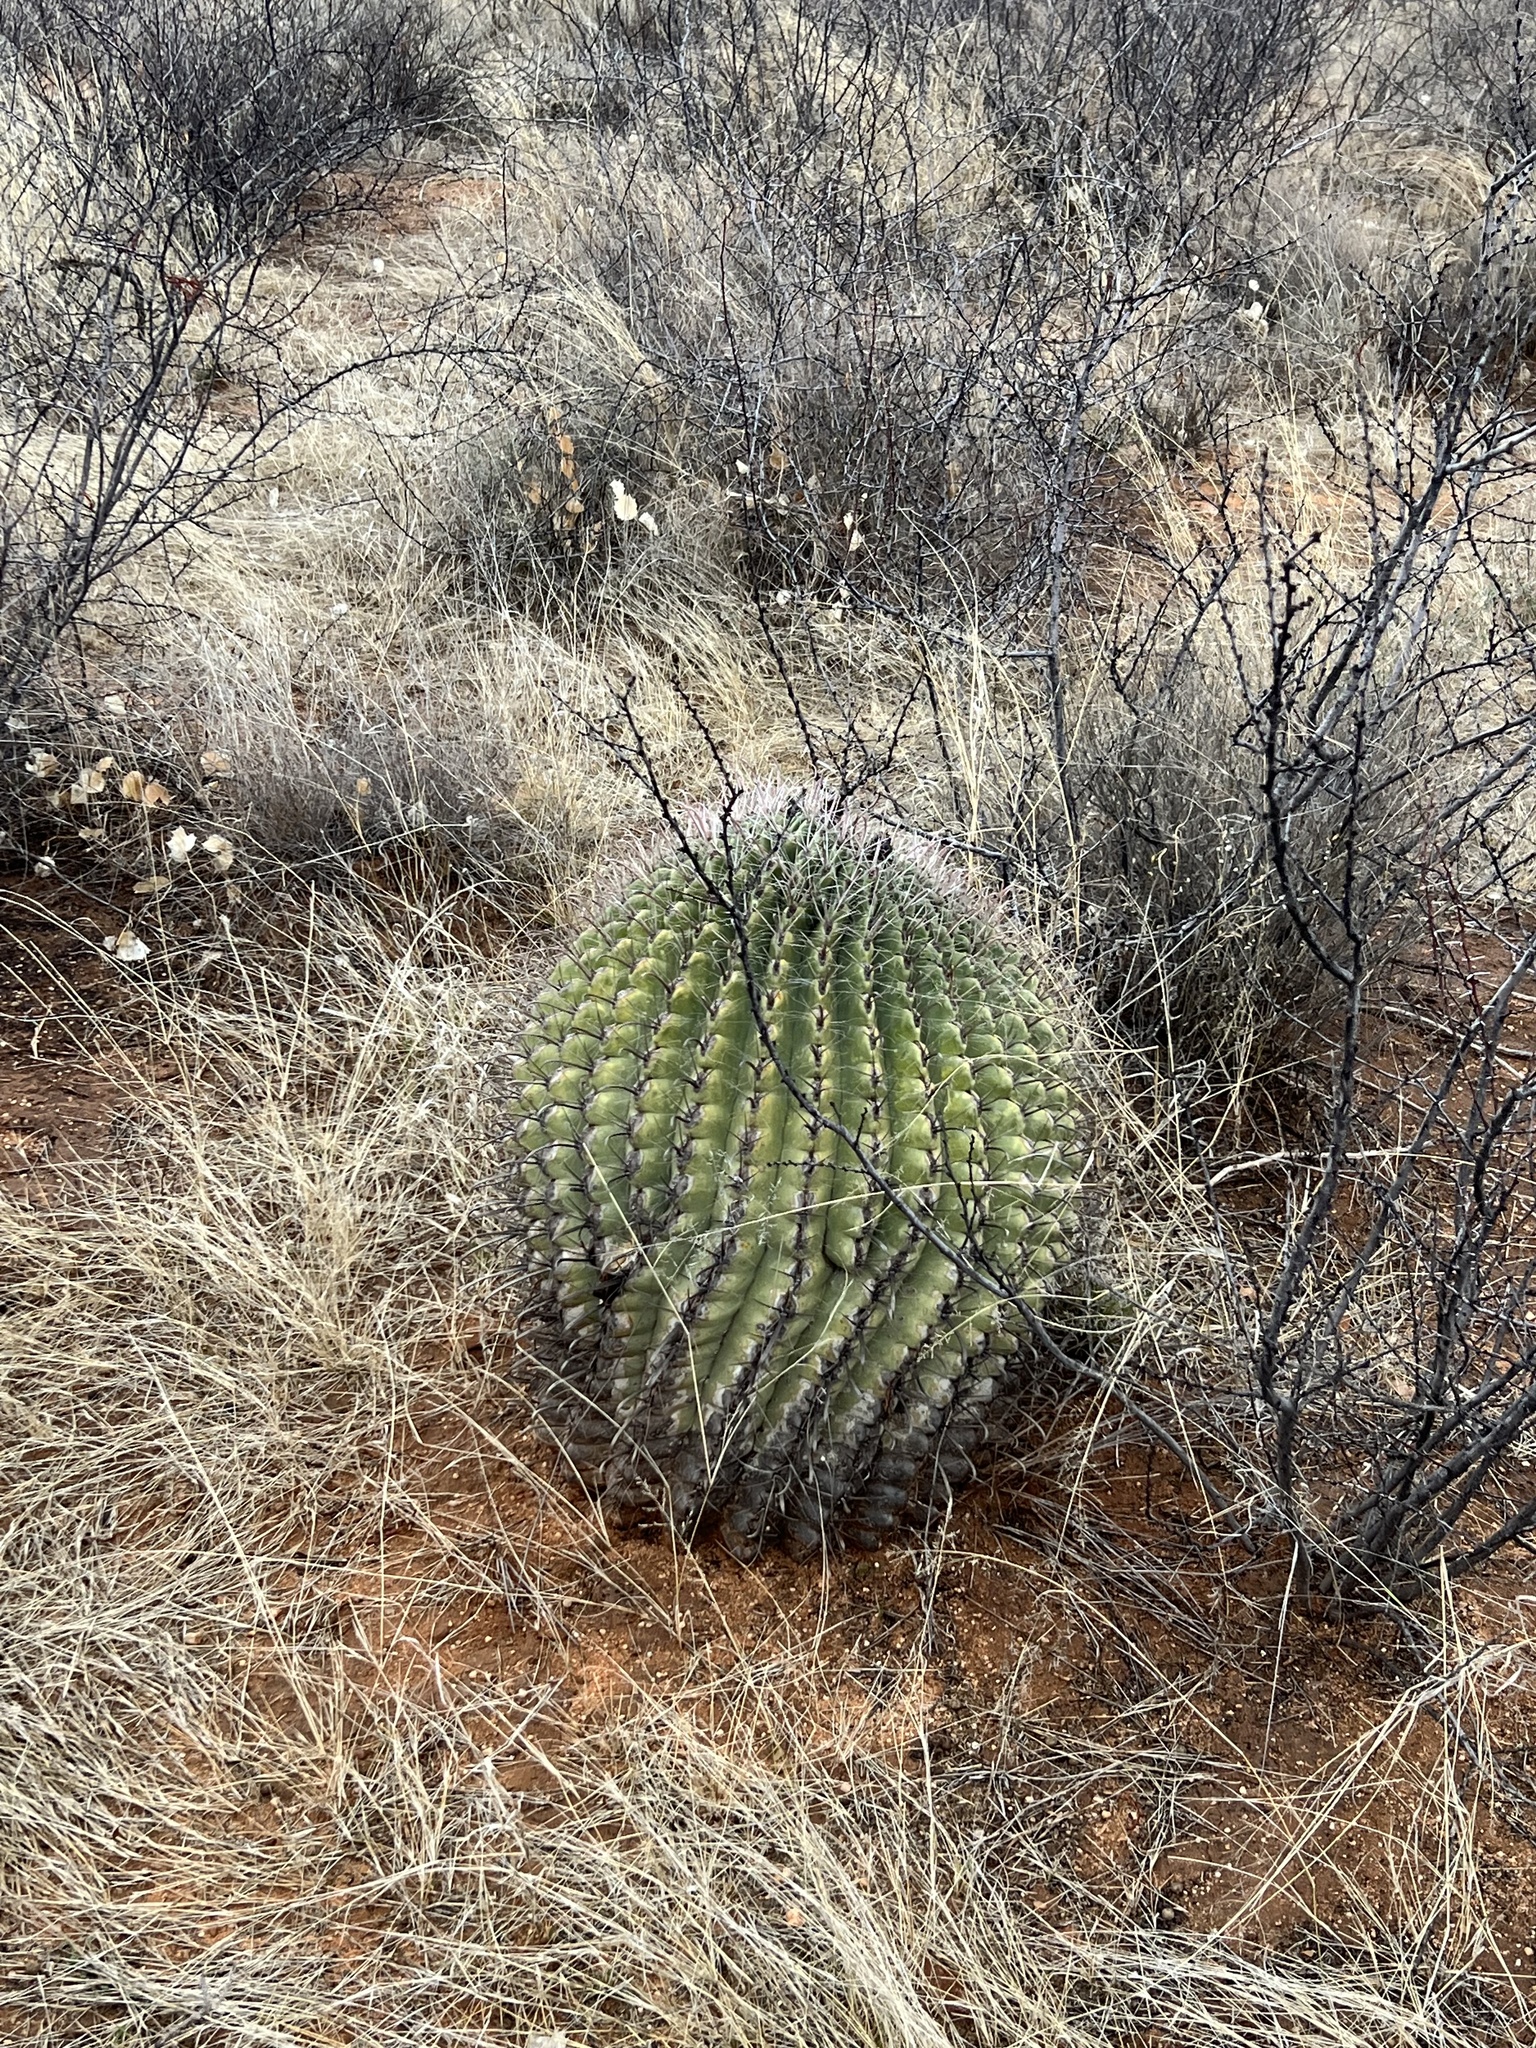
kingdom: Plantae
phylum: Tracheophyta
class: Magnoliopsida
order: Caryophyllales
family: Cactaceae
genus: Ferocactus
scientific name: Ferocactus wislizeni
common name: Candy barrel cactus
